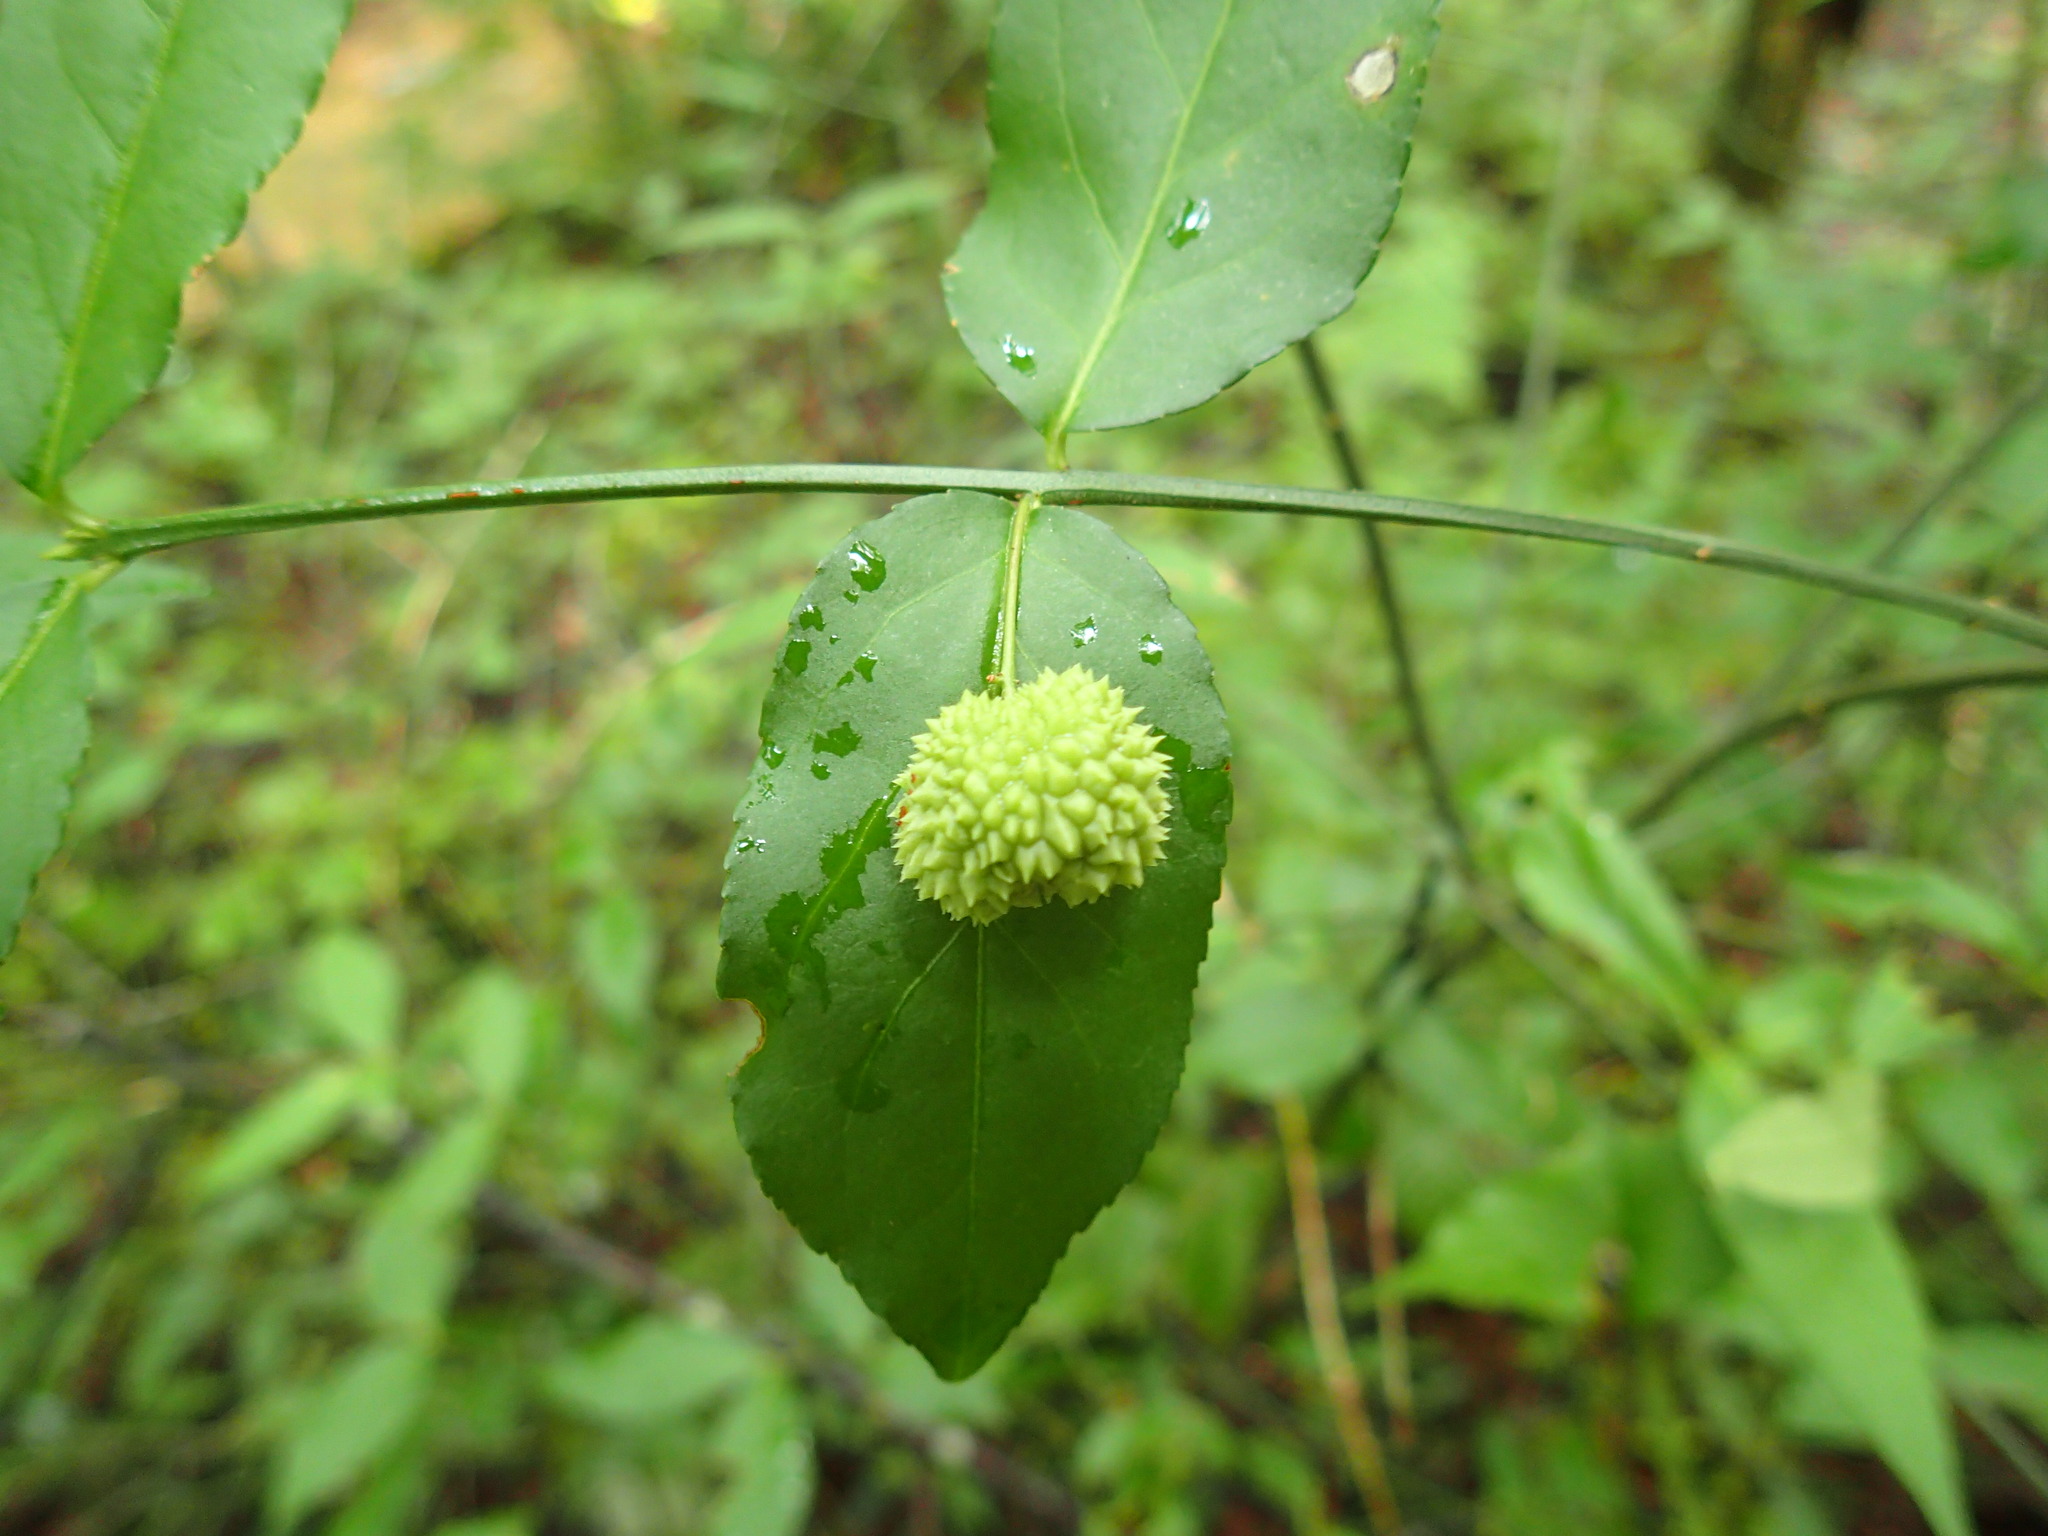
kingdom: Plantae
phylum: Tracheophyta
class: Magnoliopsida
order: Celastrales
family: Celastraceae
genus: Euonymus
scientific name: Euonymus americanus
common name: Bursting-heart
